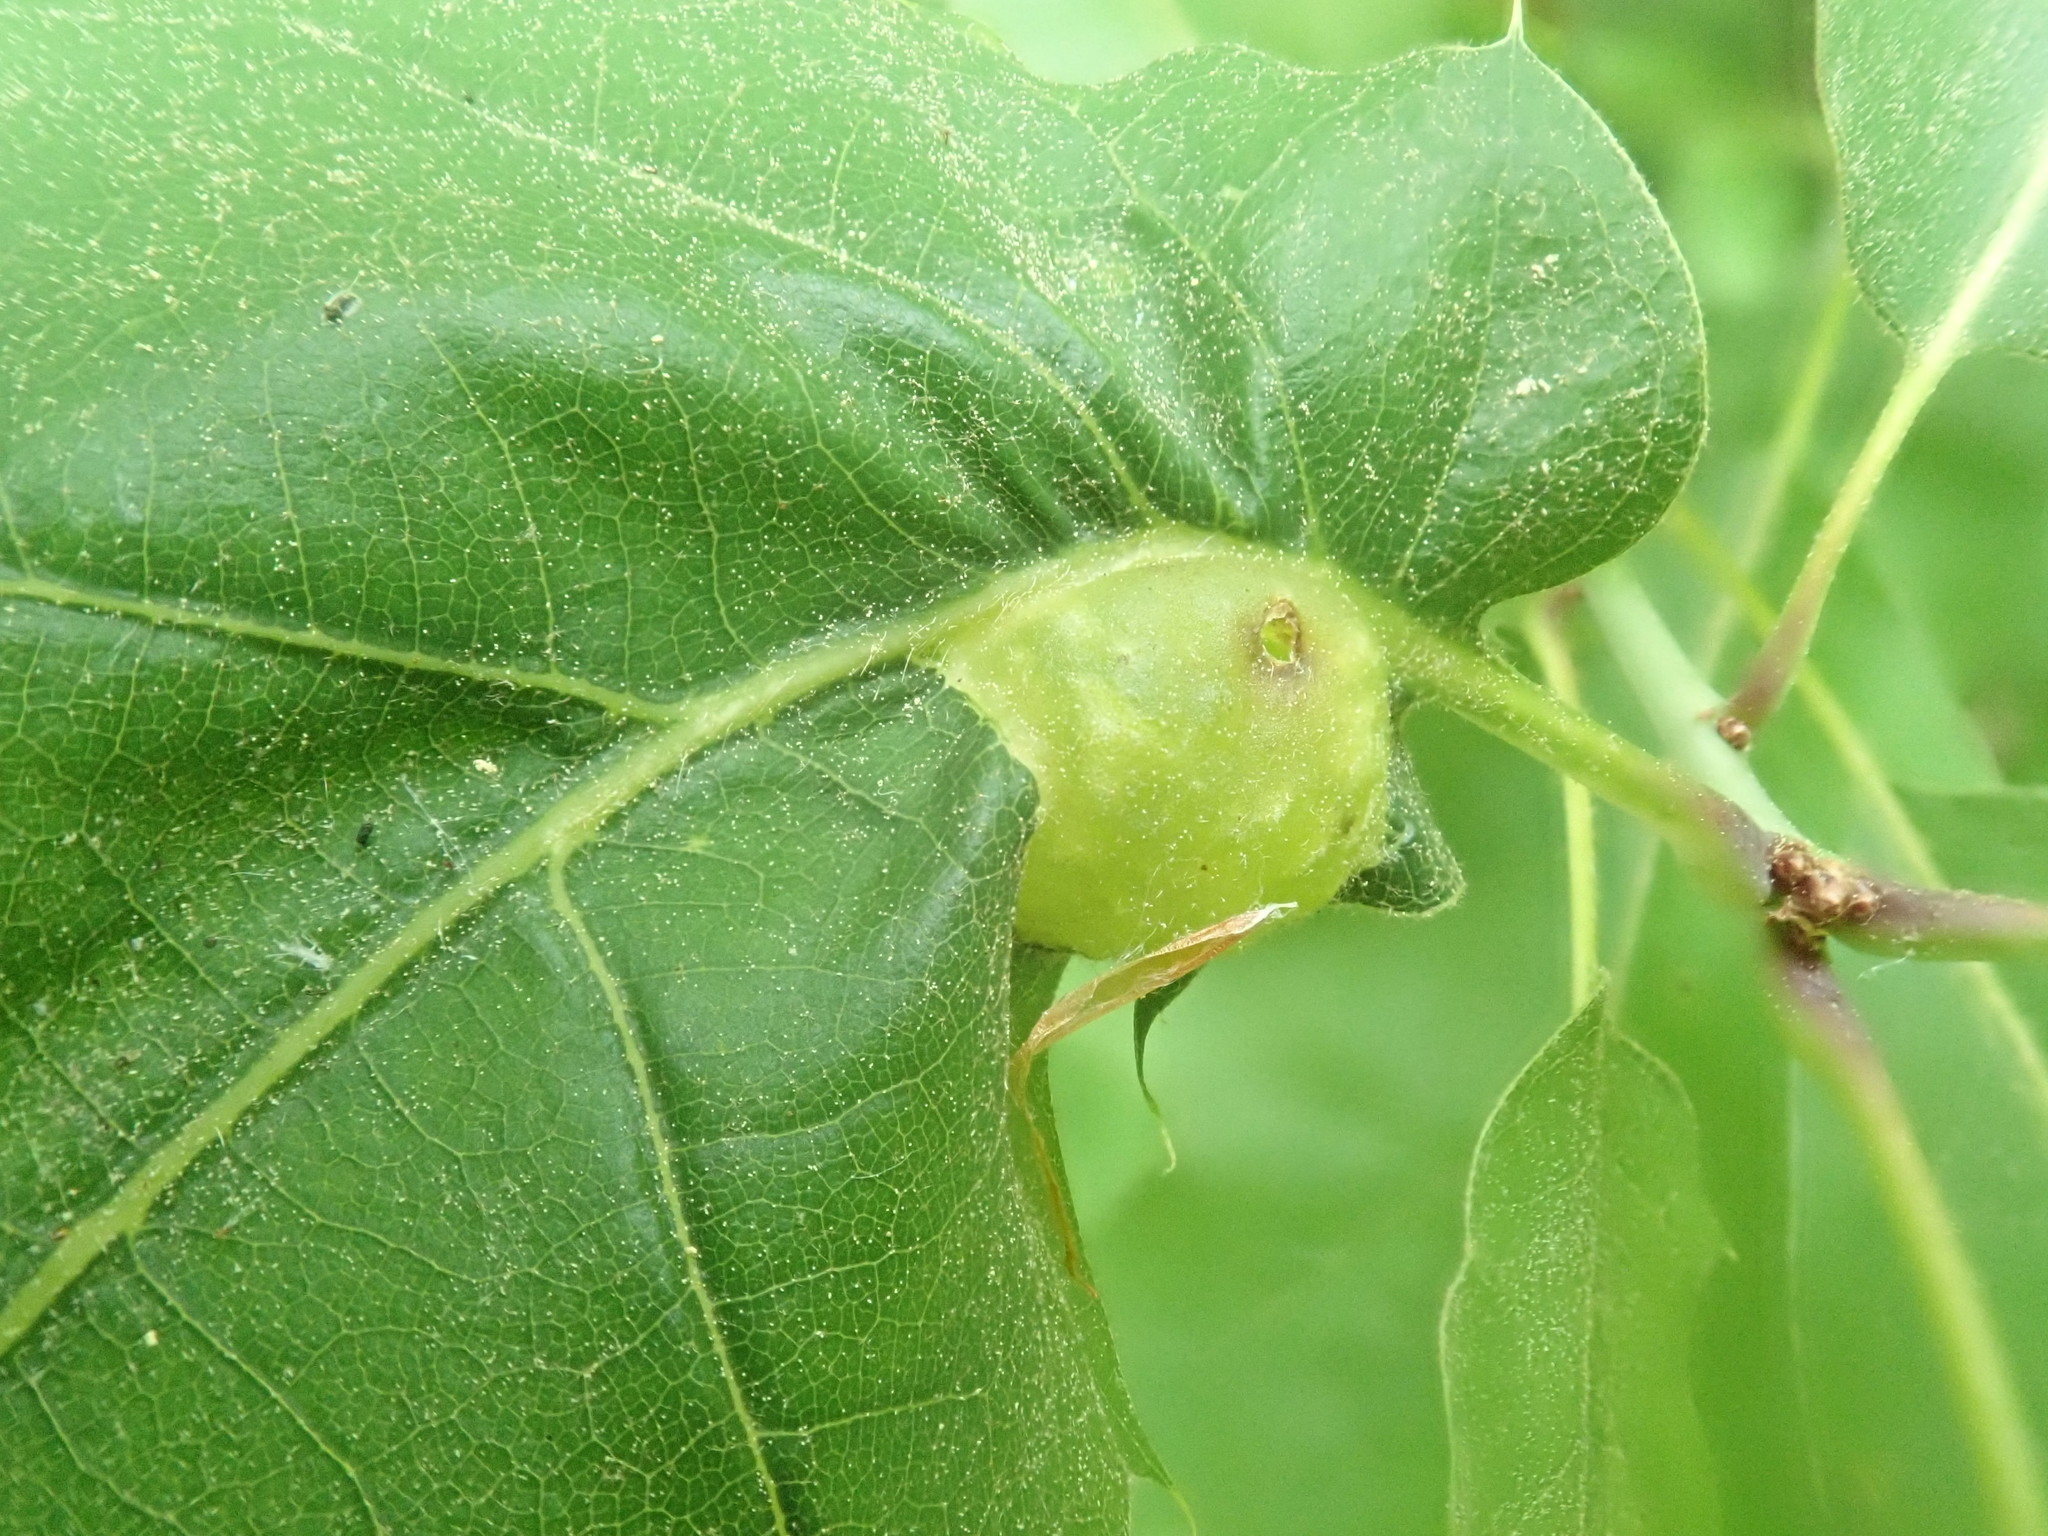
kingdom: Animalia
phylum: Arthropoda
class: Insecta
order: Hymenoptera
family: Cynipidae
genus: Dryocosmus
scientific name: Dryocosmus quercuspalustris
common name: Succulent oak gall wasp
